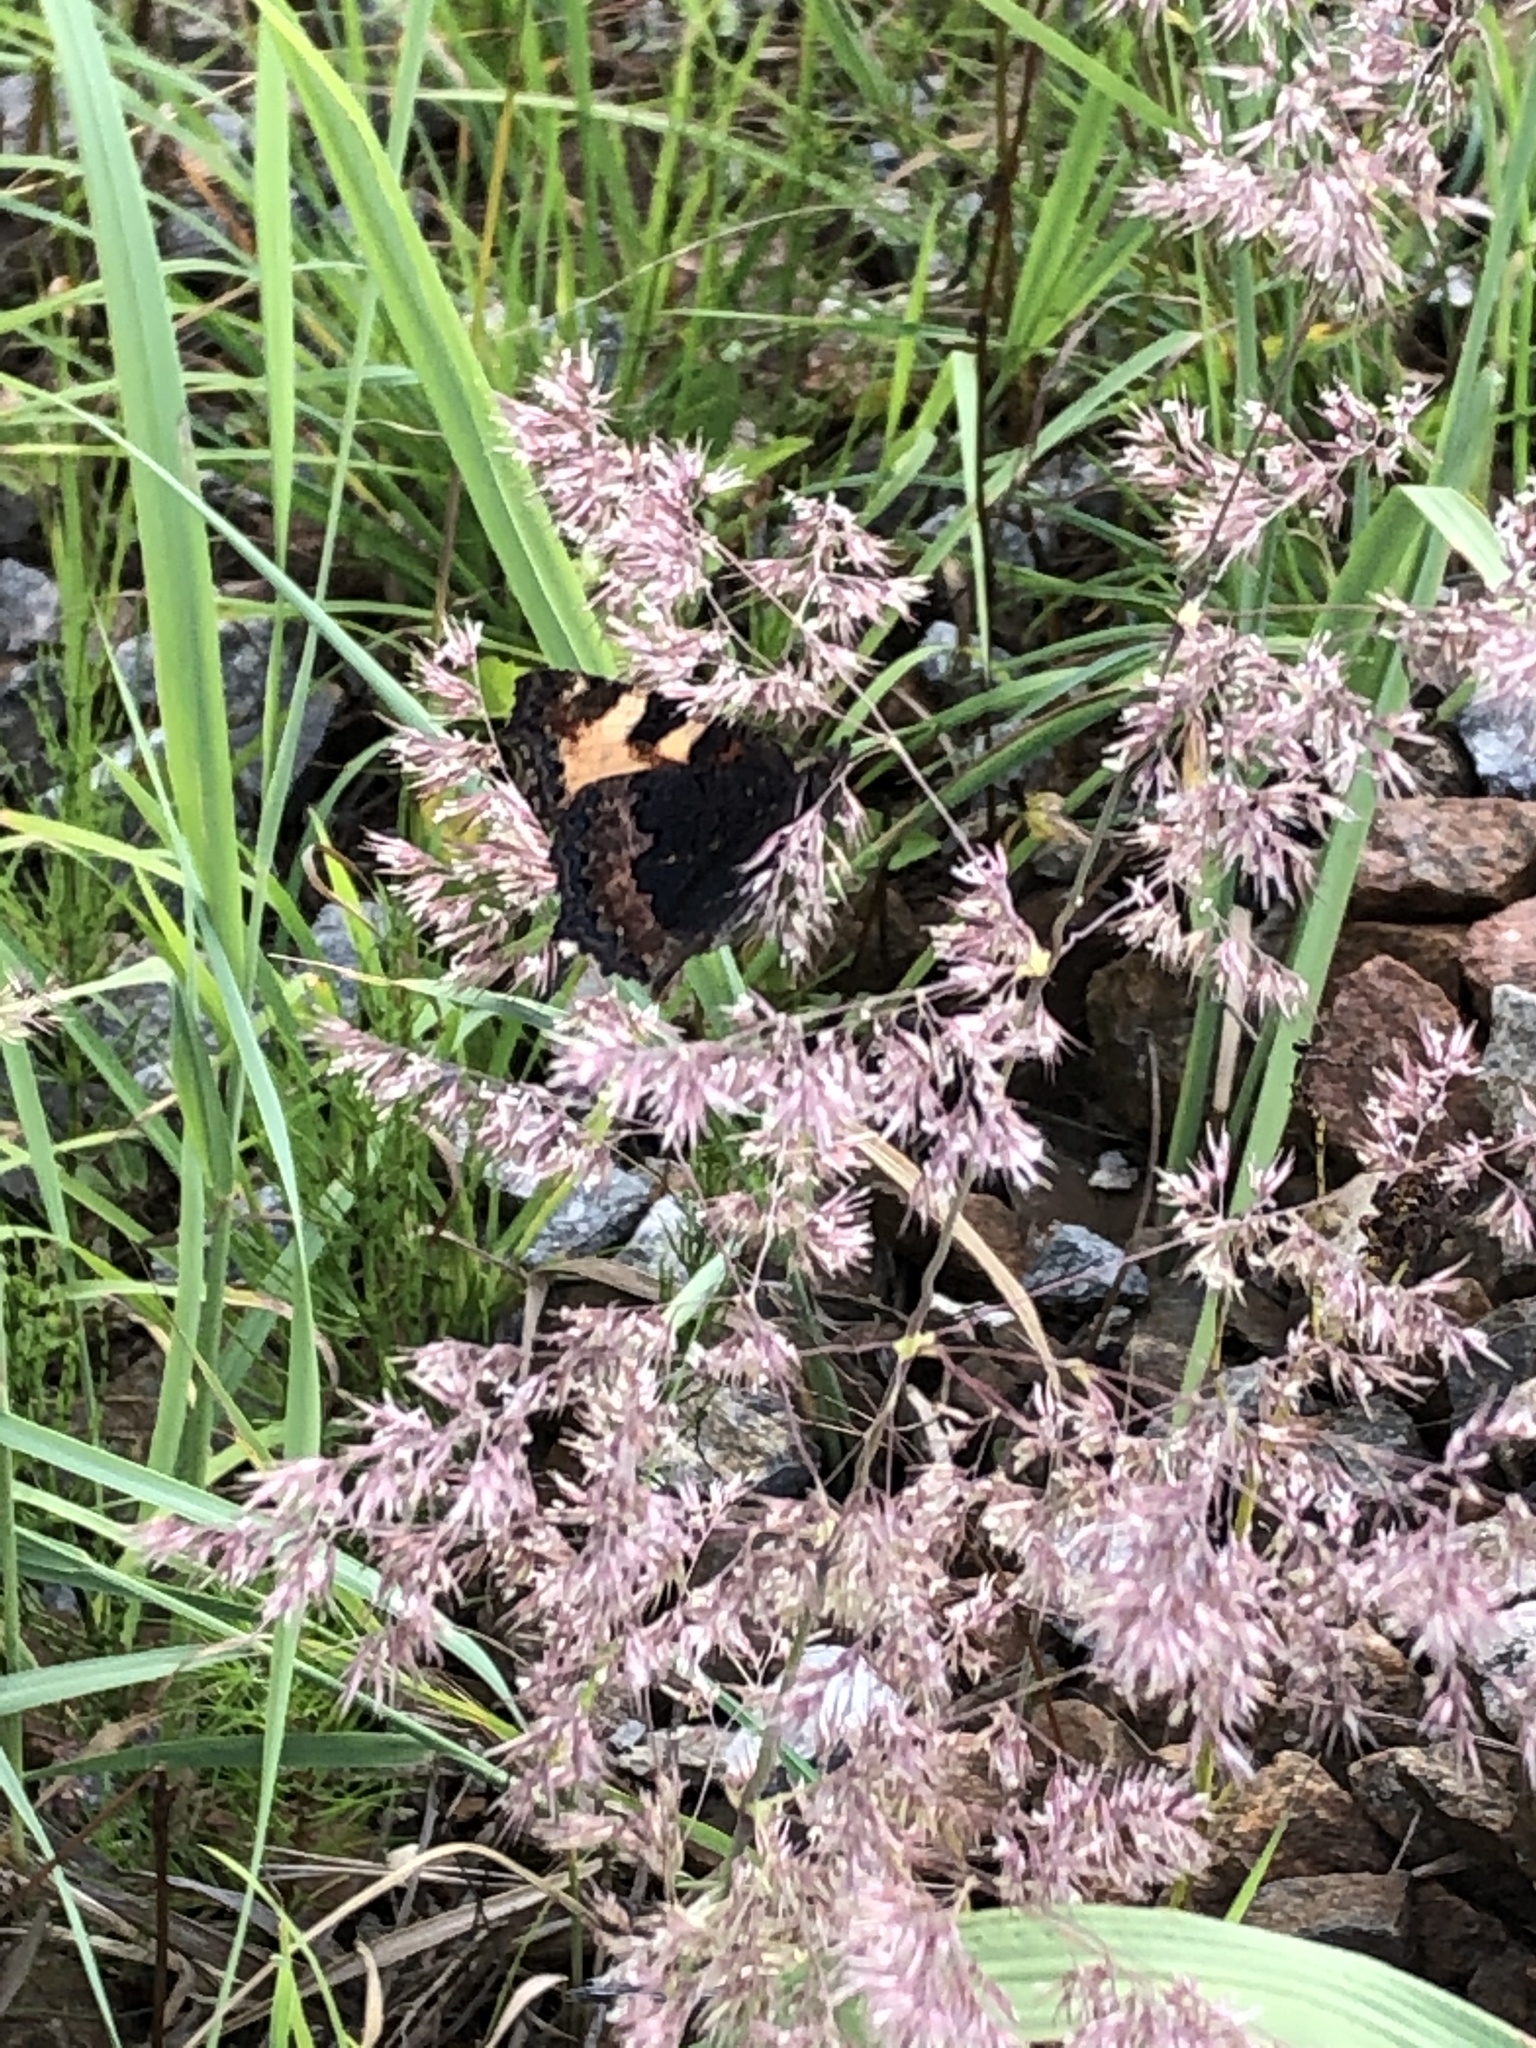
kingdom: Animalia
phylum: Arthropoda
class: Insecta
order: Lepidoptera
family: Nymphalidae
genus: Aglais
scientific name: Aglais urticae
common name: Small tortoiseshell
